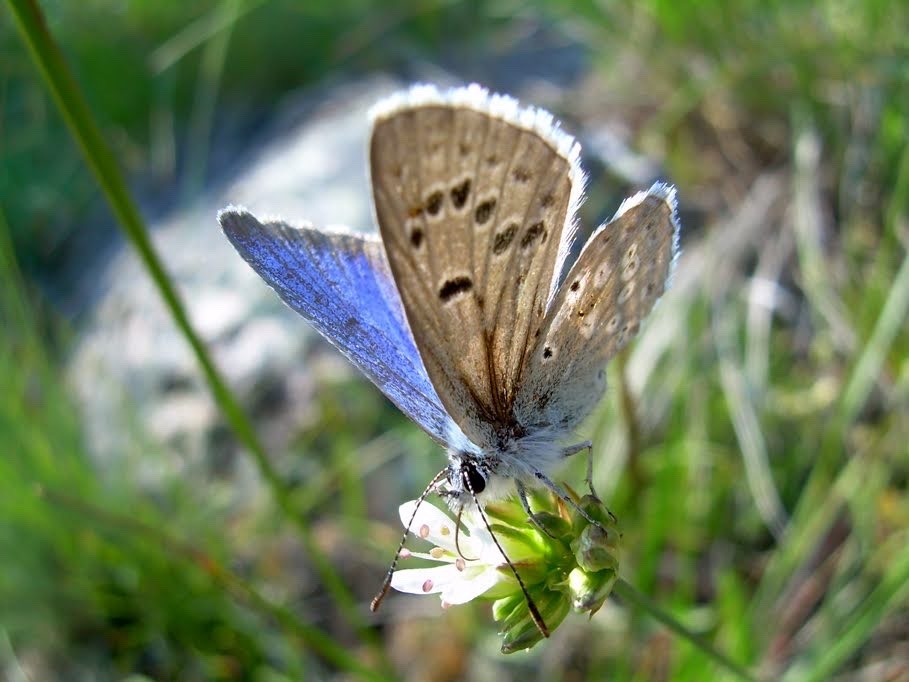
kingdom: Animalia
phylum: Arthropoda
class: Insecta
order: Lepidoptera
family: Lycaenidae
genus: Icaricia
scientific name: Icaricia icarioides
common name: Boisduval's blue
